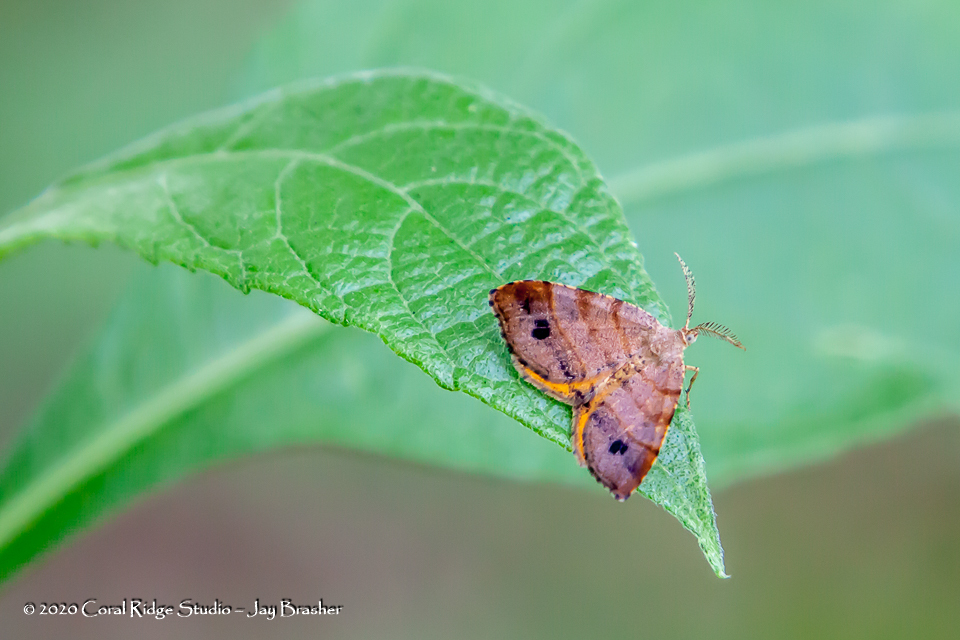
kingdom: Animalia
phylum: Arthropoda
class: Insecta
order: Lepidoptera
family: Geometridae
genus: Mellilla
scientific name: Mellilla xanthometata
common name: Orange wing moth
